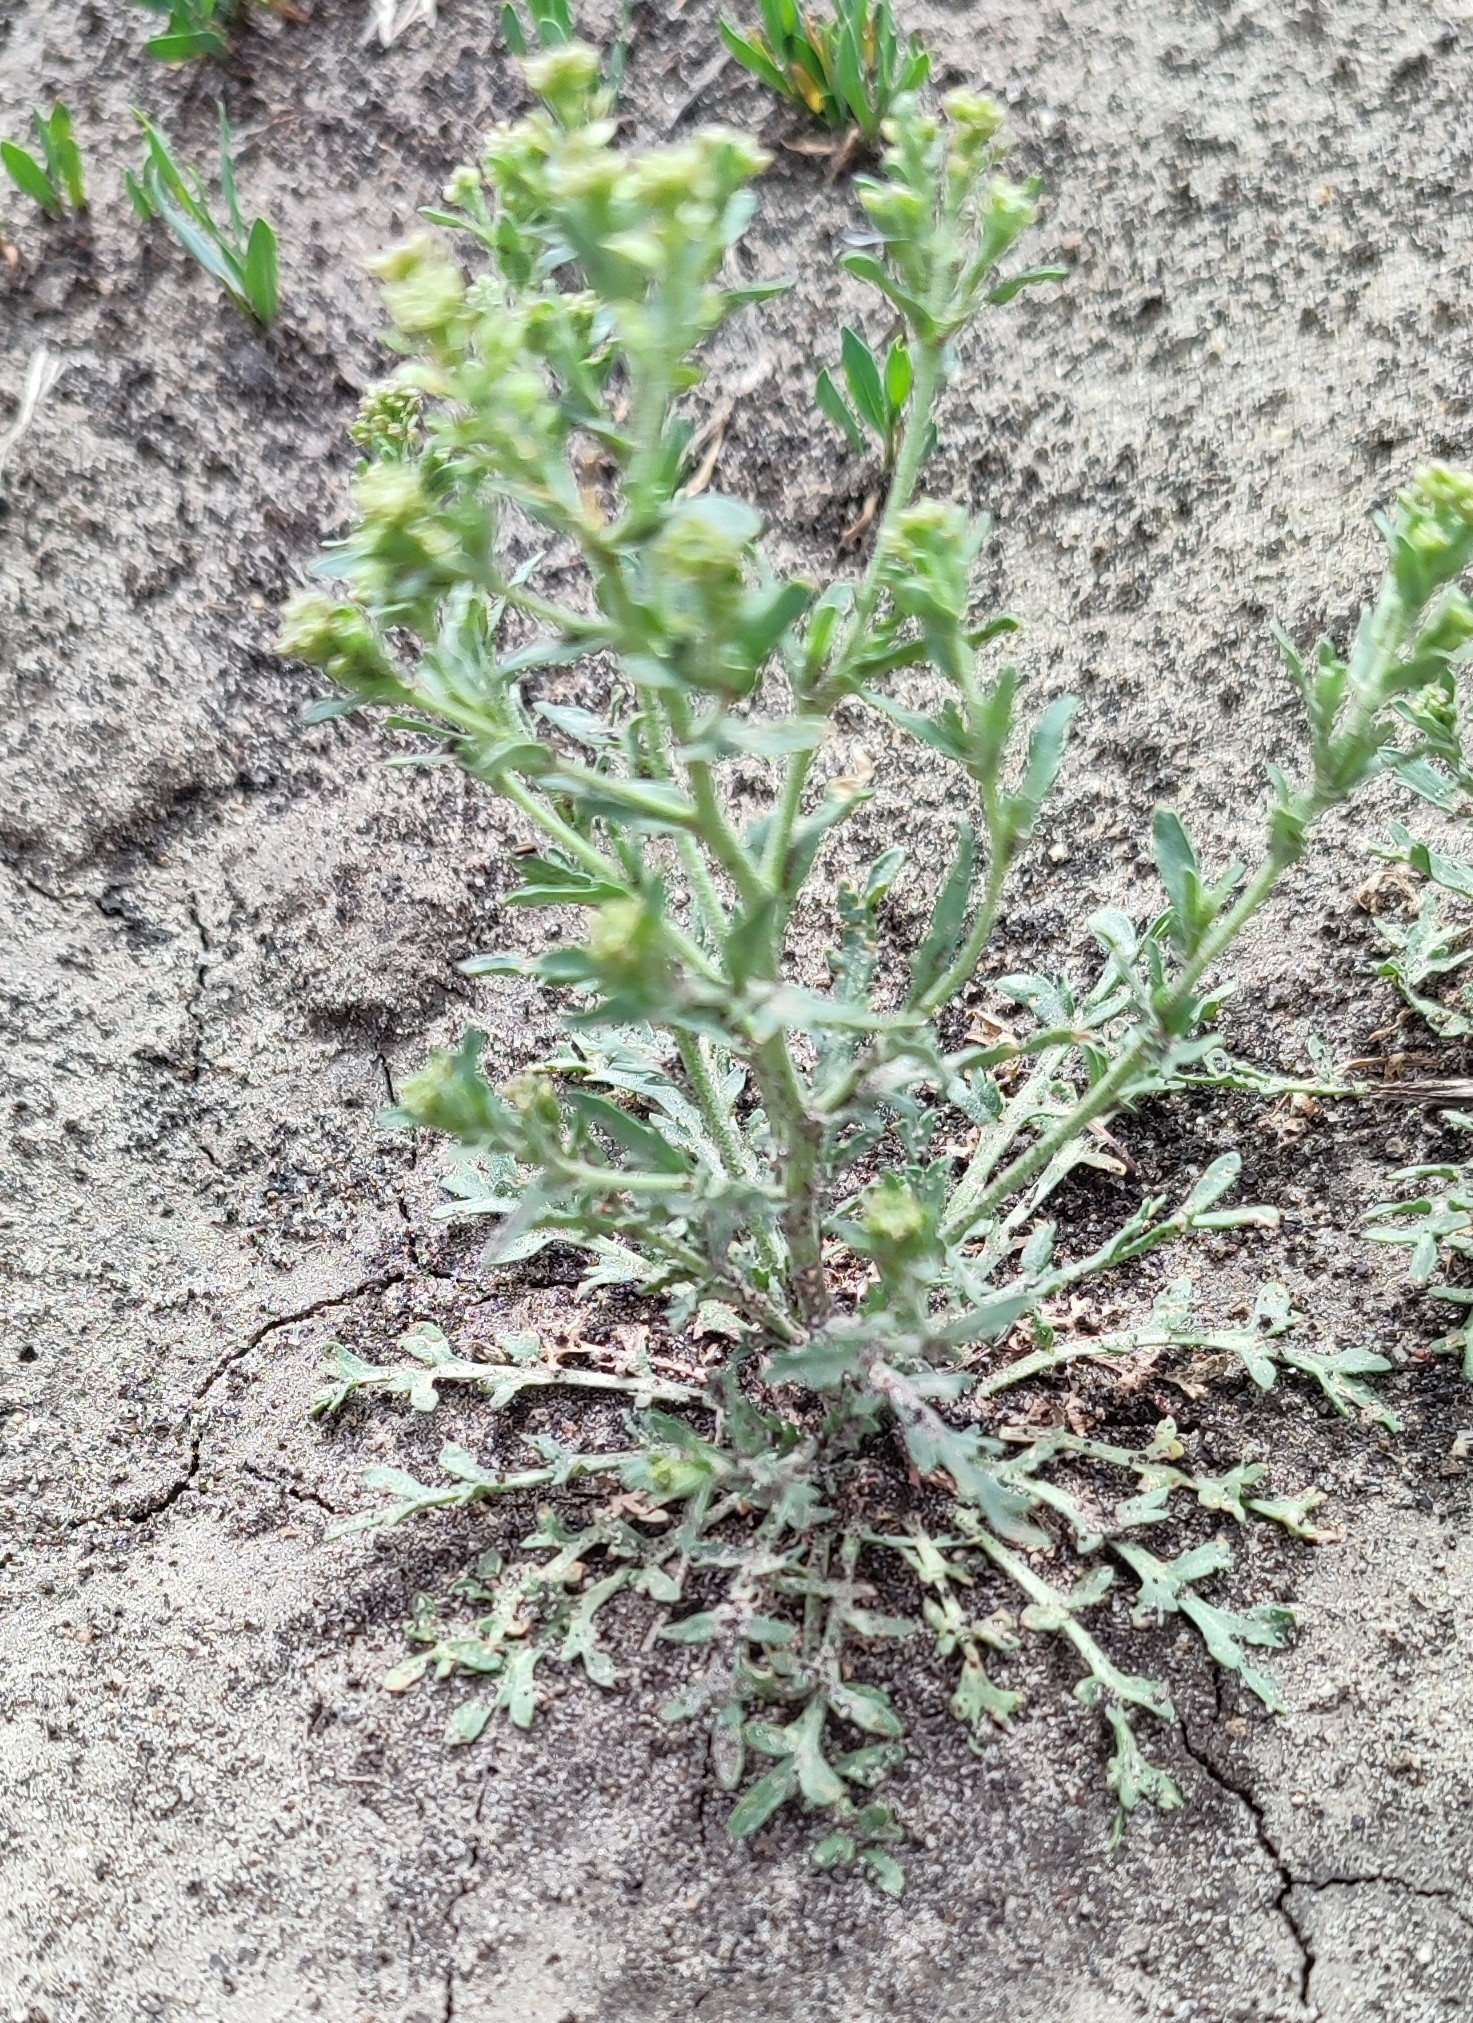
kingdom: Plantae
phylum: Tracheophyta
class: Magnoliopsida
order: Brassicales
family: Brassicaceae
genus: Lepidium
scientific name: Lepidium ruderale
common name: Narrow-leaved pepperwort
